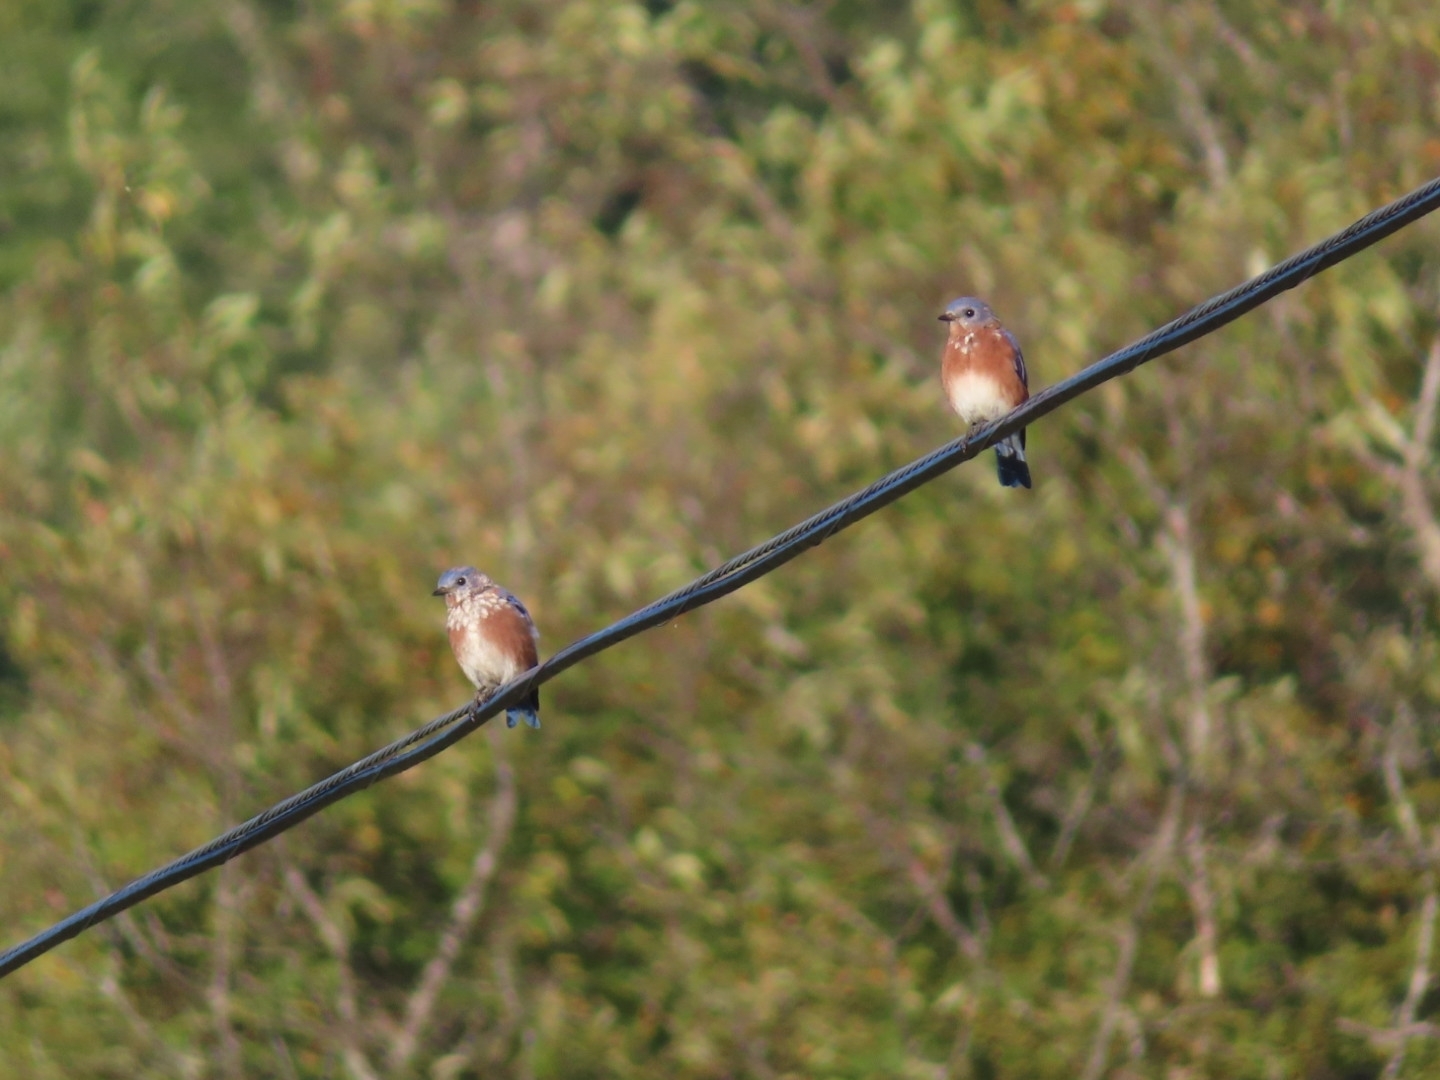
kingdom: Animalia
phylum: Chordata
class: Aves
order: Passeriformes
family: Turdidae
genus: Sialia
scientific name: Sialia sialis
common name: Eastern bluebird
